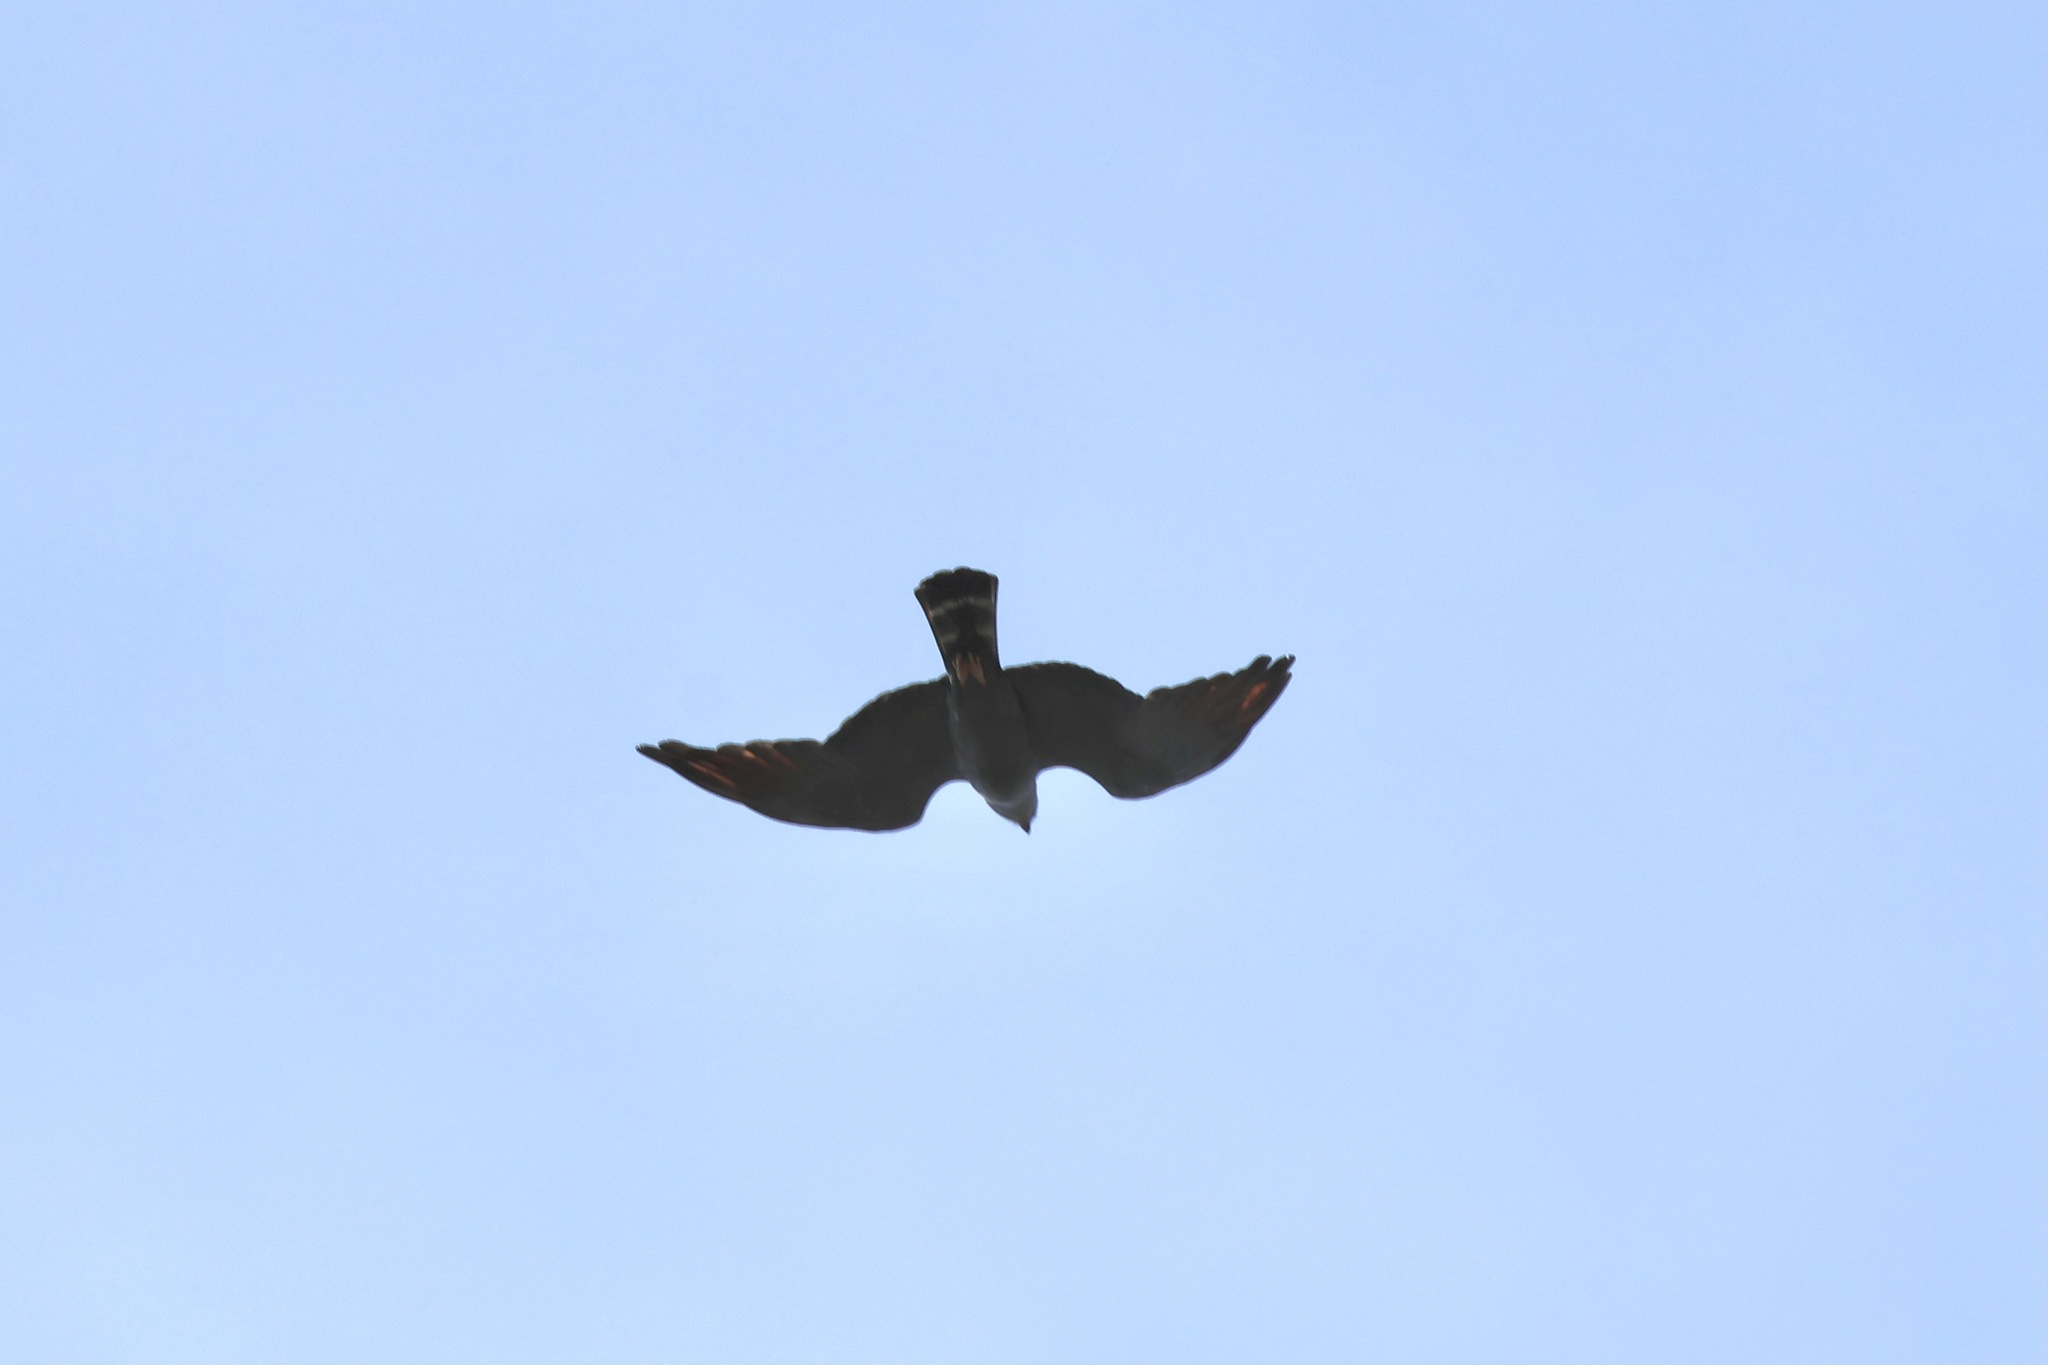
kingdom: Animalia
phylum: Chordata
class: Aves
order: Accipitriformes
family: Accipitridae
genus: Ictinia
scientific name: Ictinia plumbea
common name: Plumbeous kite
